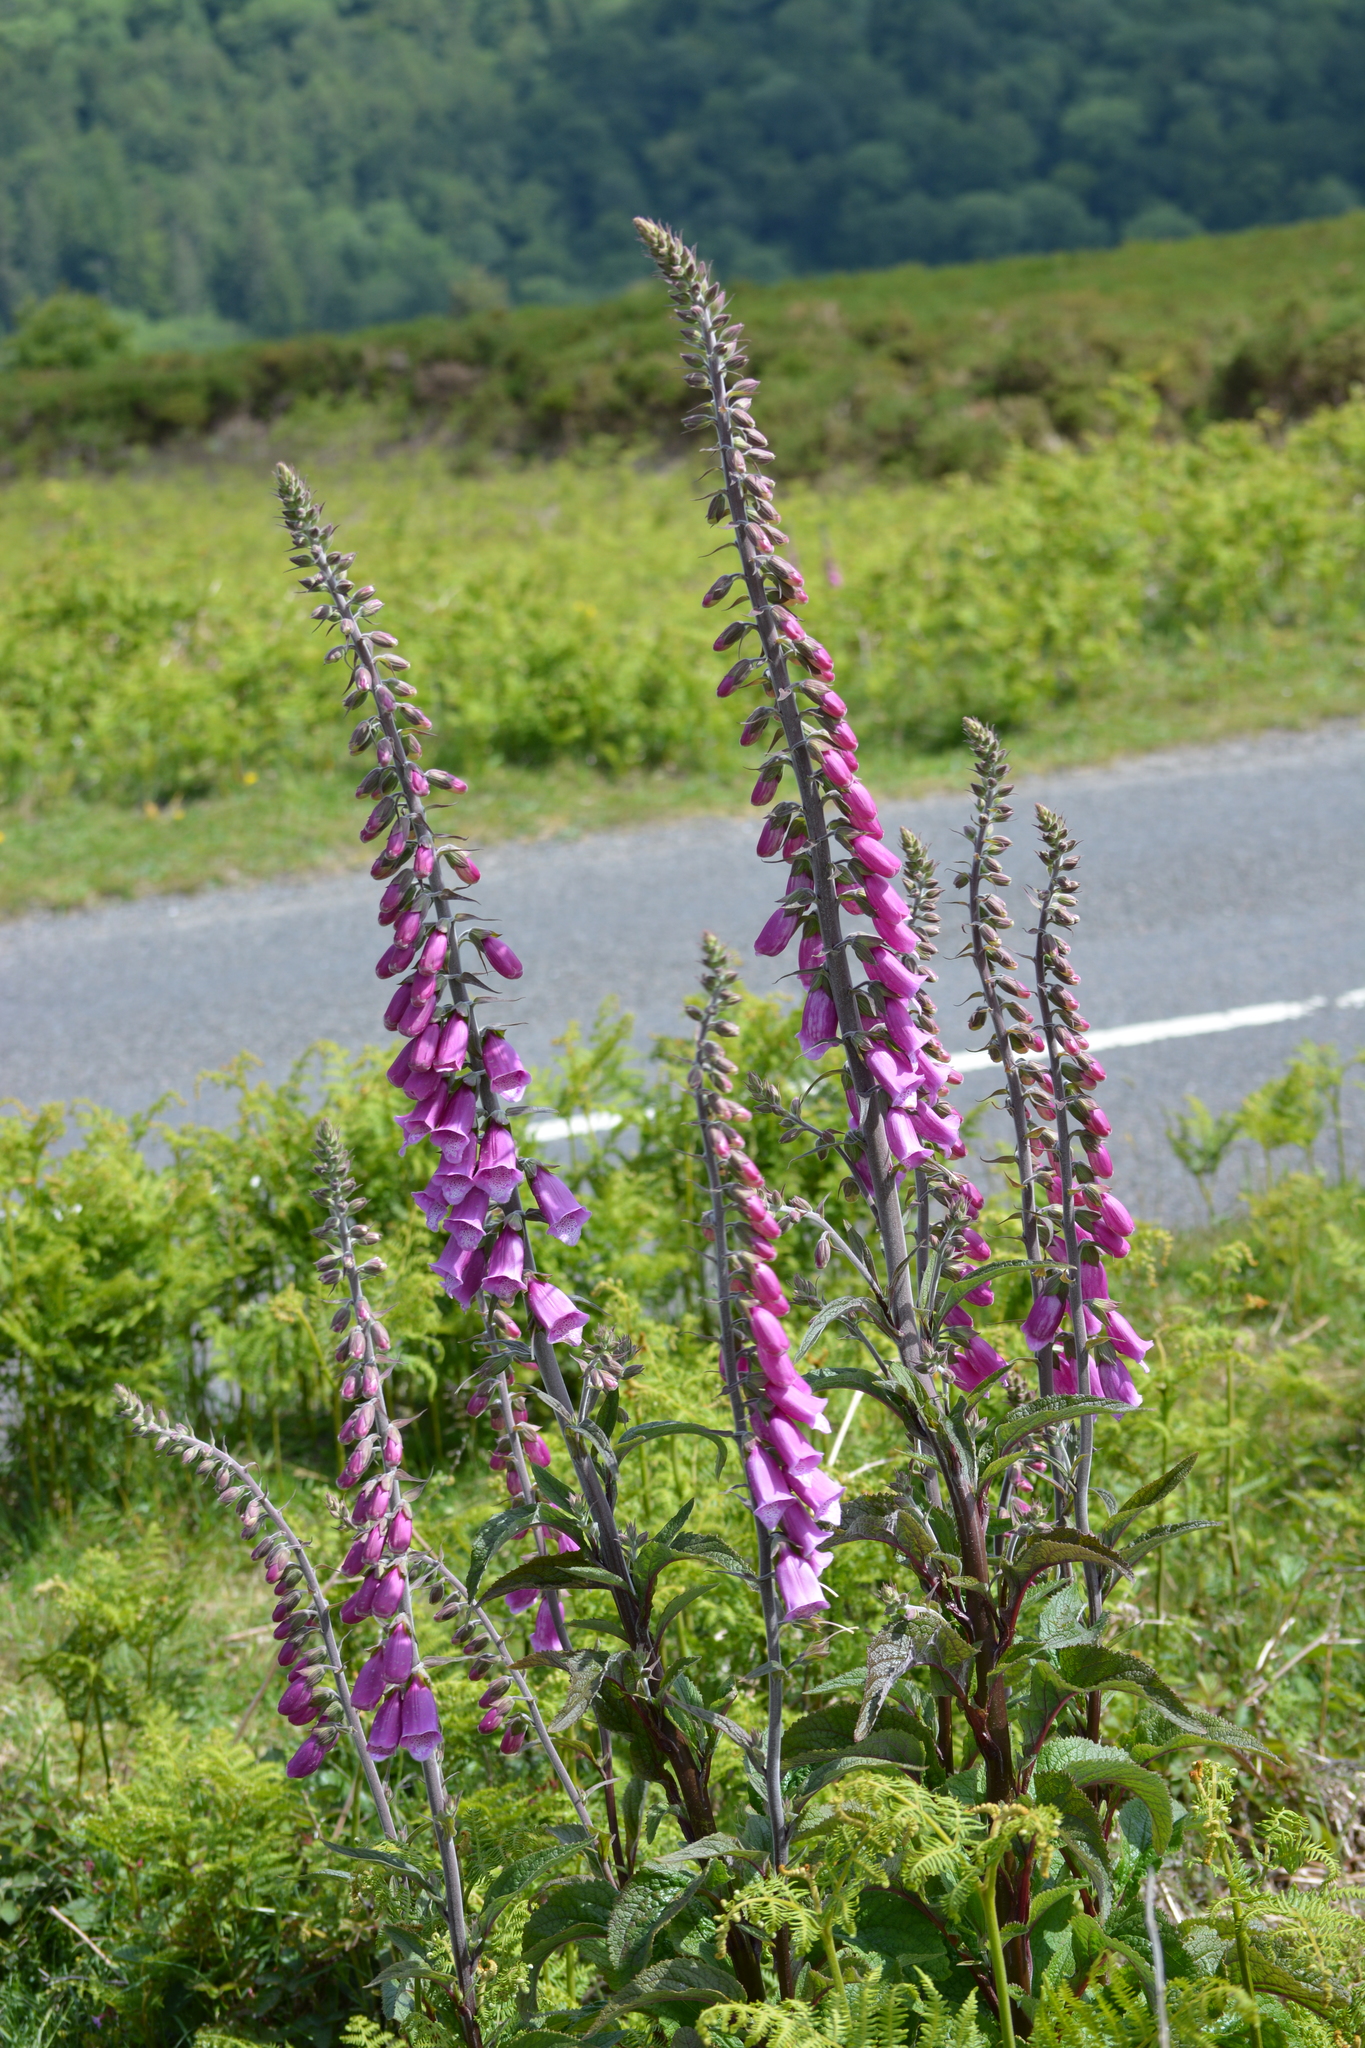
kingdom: Plantae
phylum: Tracheophyta
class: Magnoliopsida
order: Lamiales
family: Plantaginaceae
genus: Digitalis
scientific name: Digitalis purpurea
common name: Foxglove
